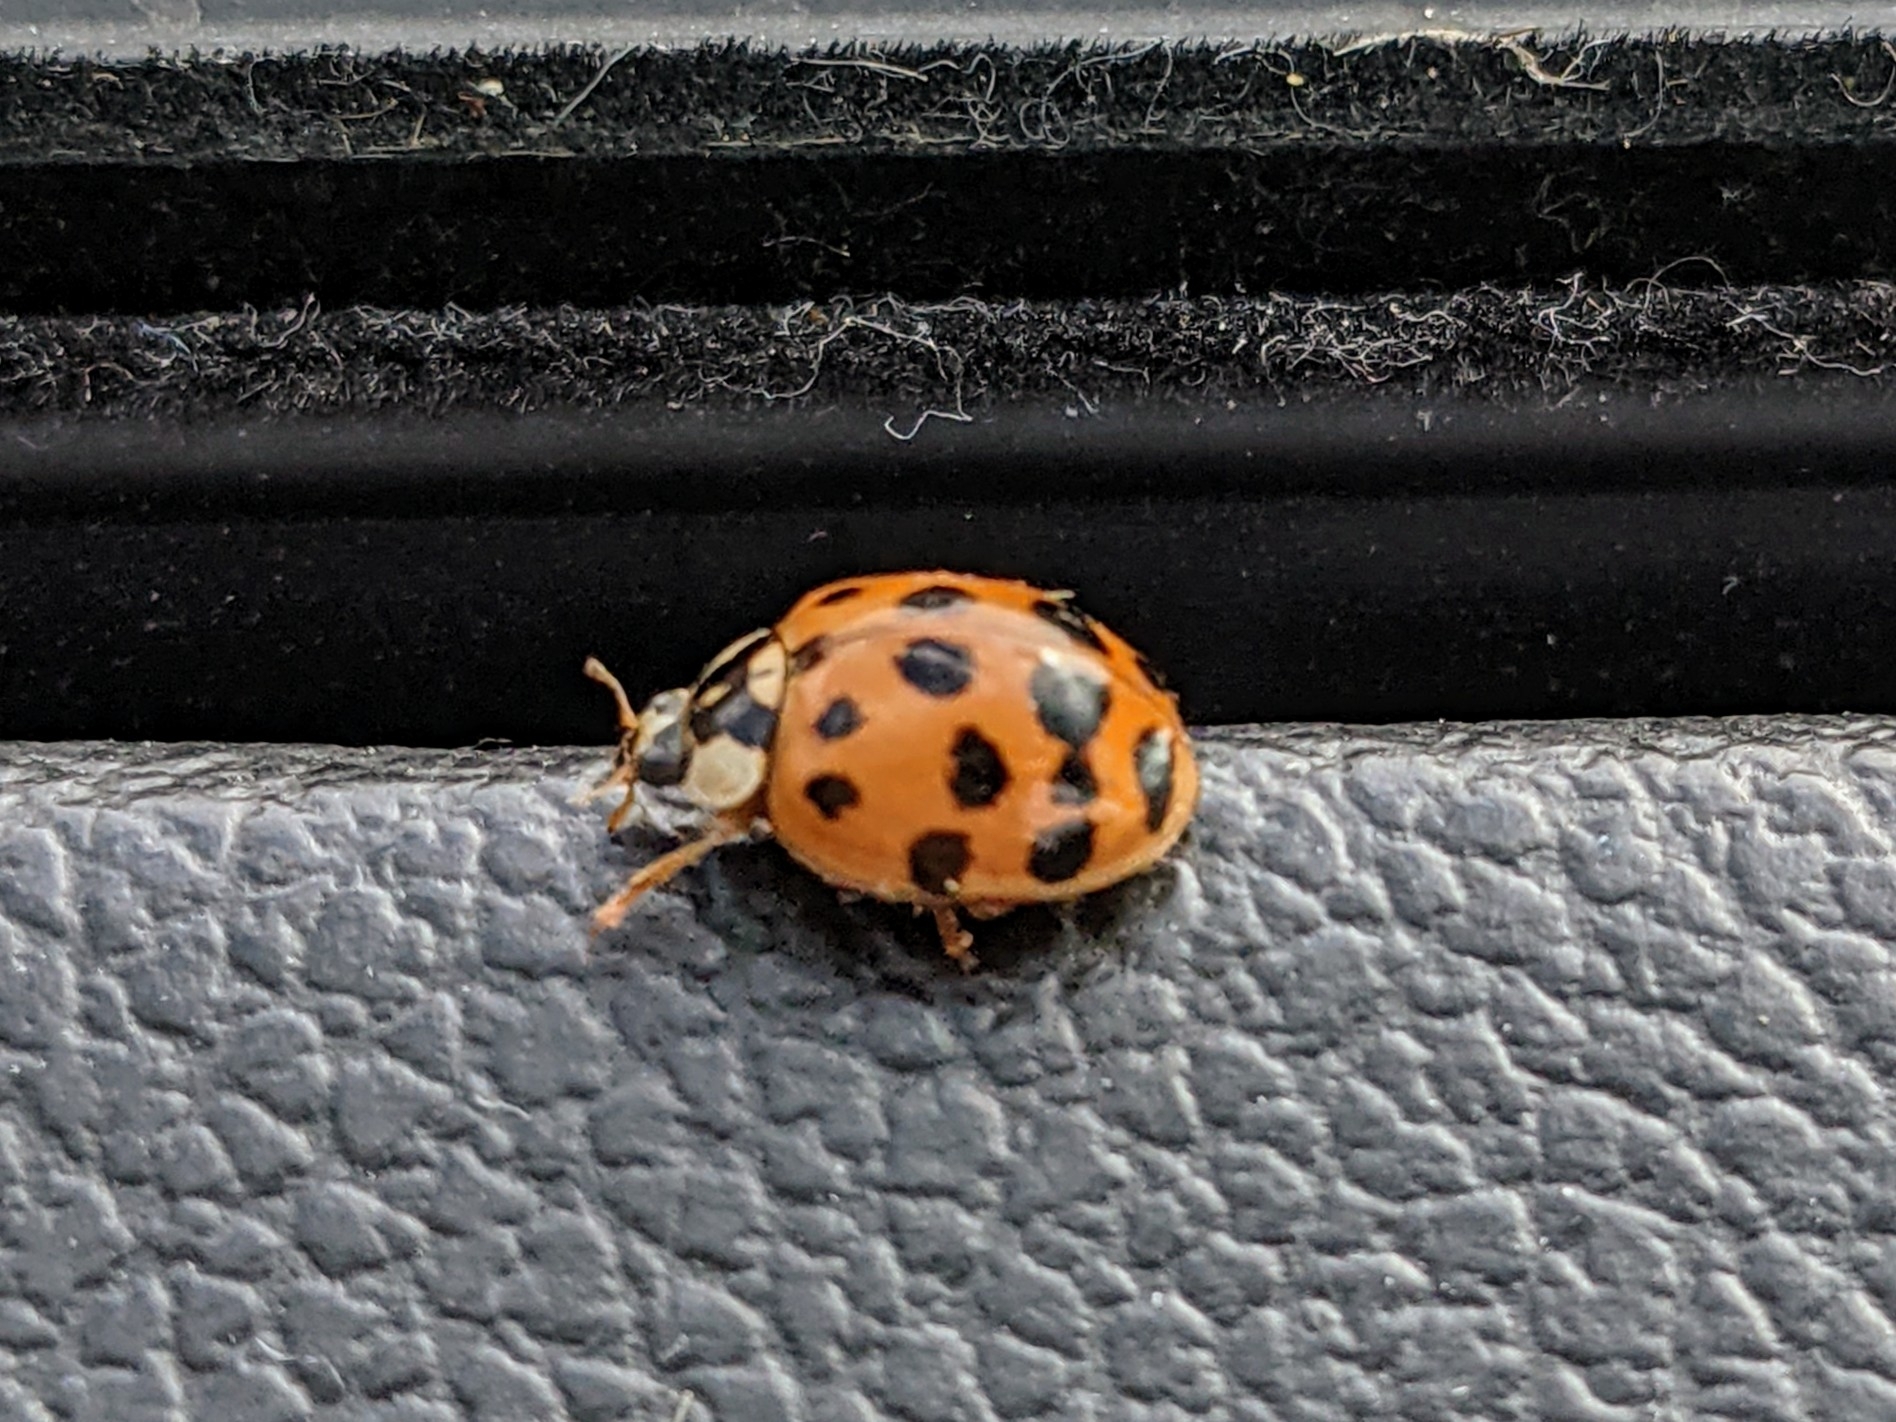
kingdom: Animalia
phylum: Arthropoda
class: Insecta
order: Coleoptera
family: Coccinellidae
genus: Harmonia
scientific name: Harmonia axyridis
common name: Harlequin ladybird
